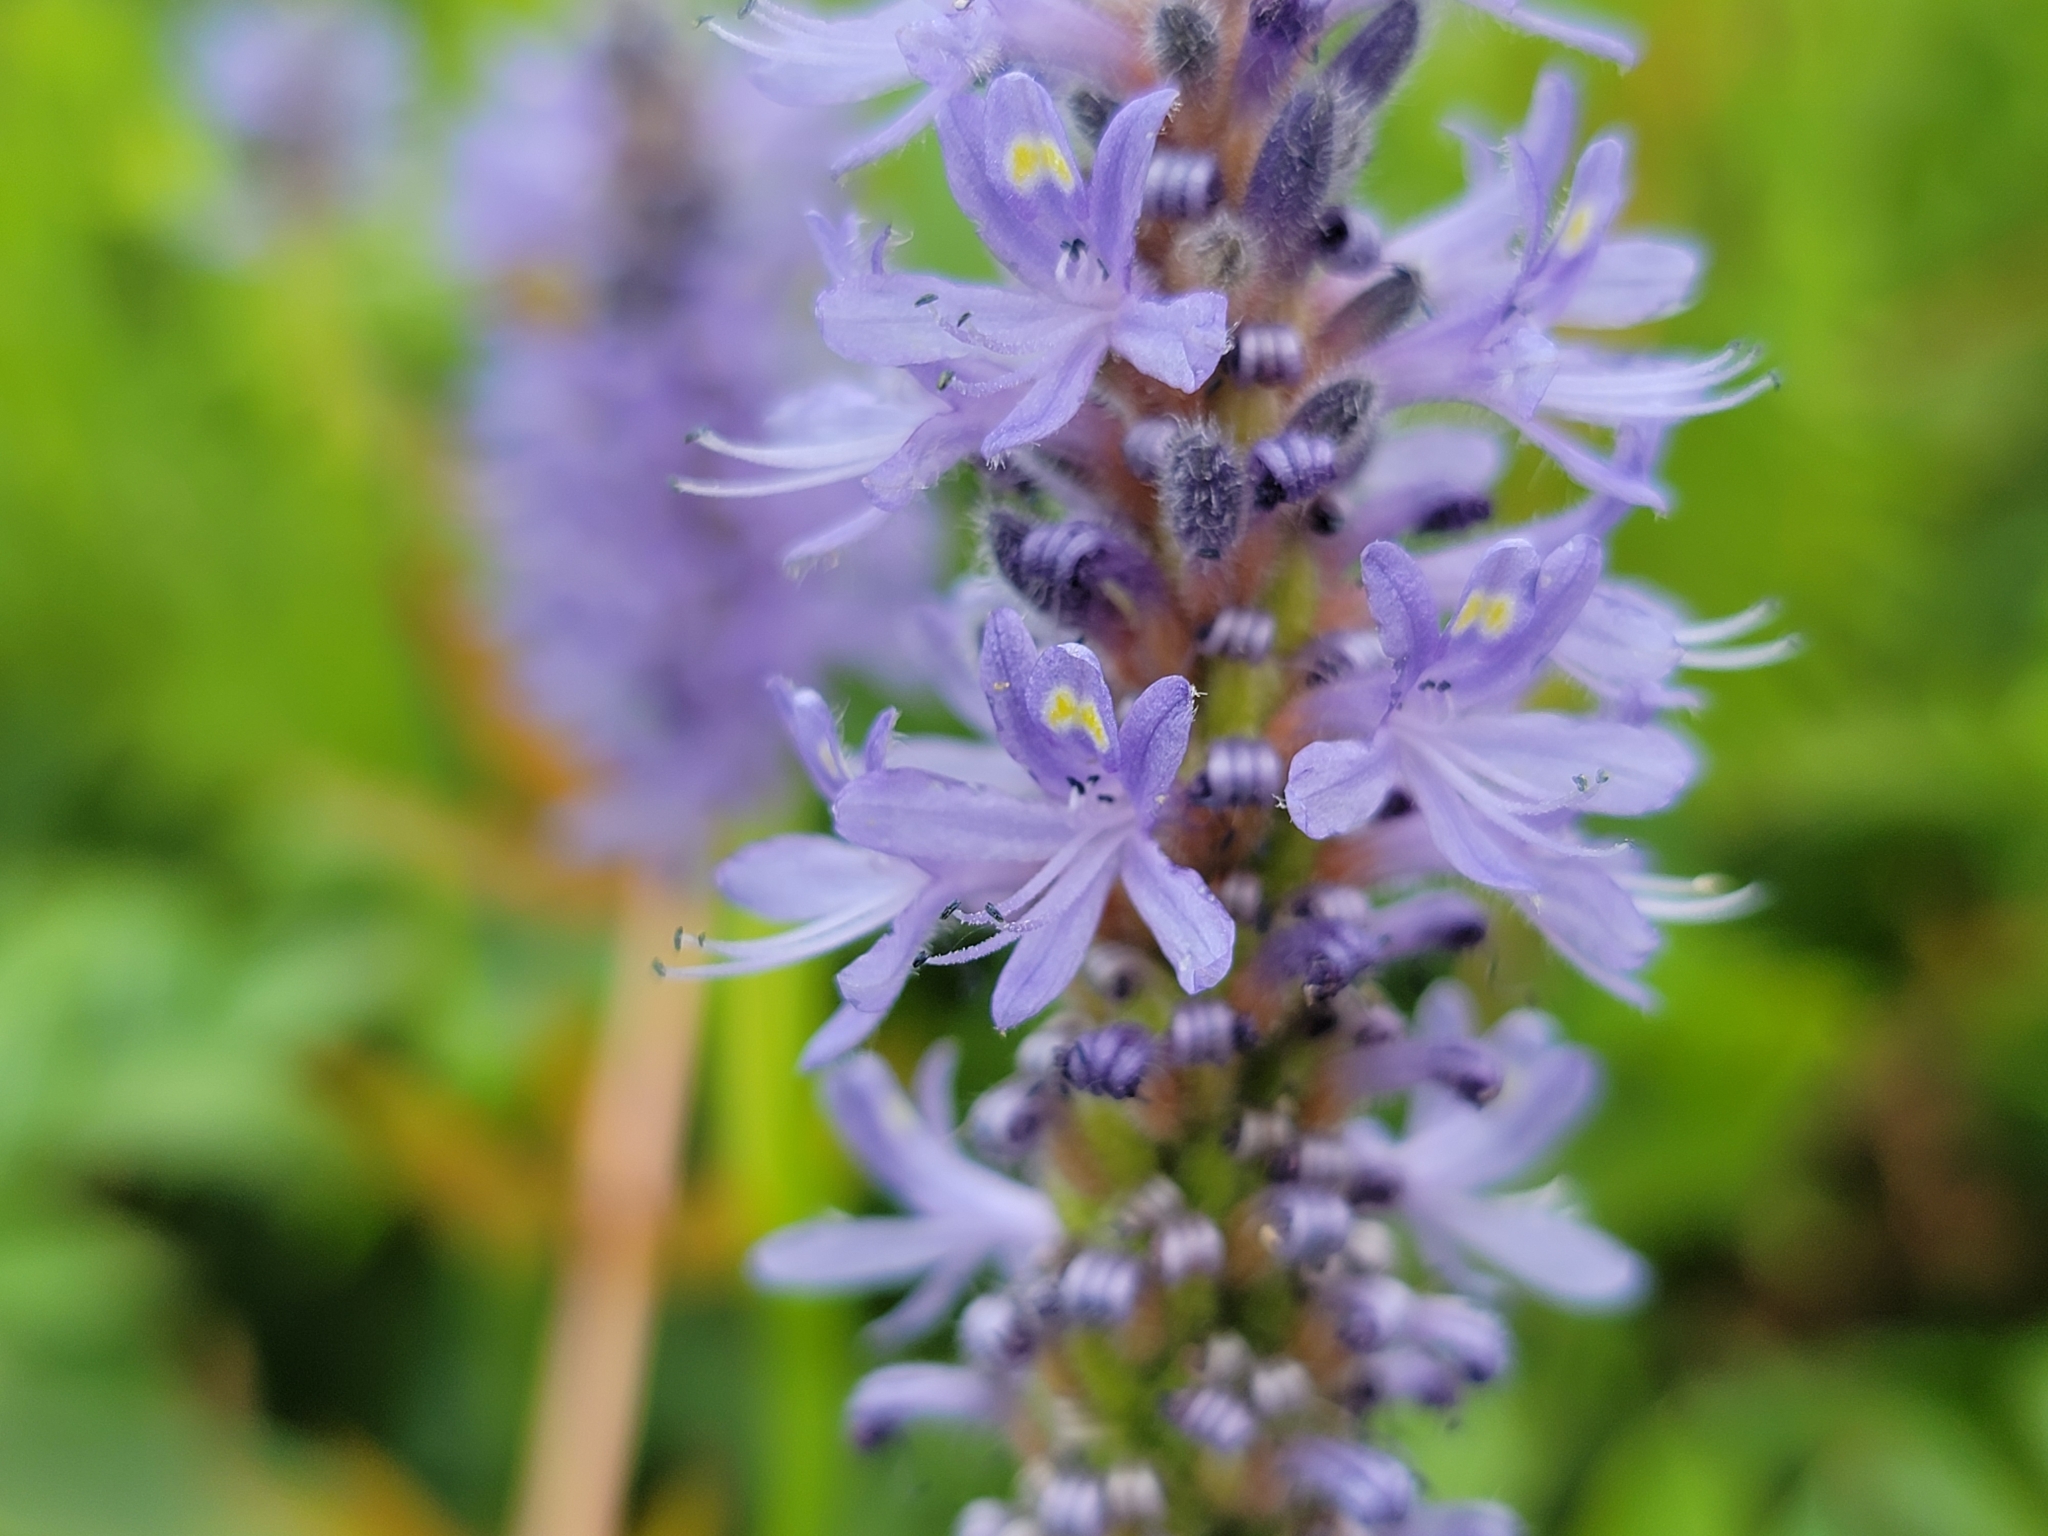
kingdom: Plantae
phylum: Tracheophyta
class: Liliopsida
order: Commelinales
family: Pontederiaceae
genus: Pontederia
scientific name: Pontederia cordata
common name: Pickerelweed
